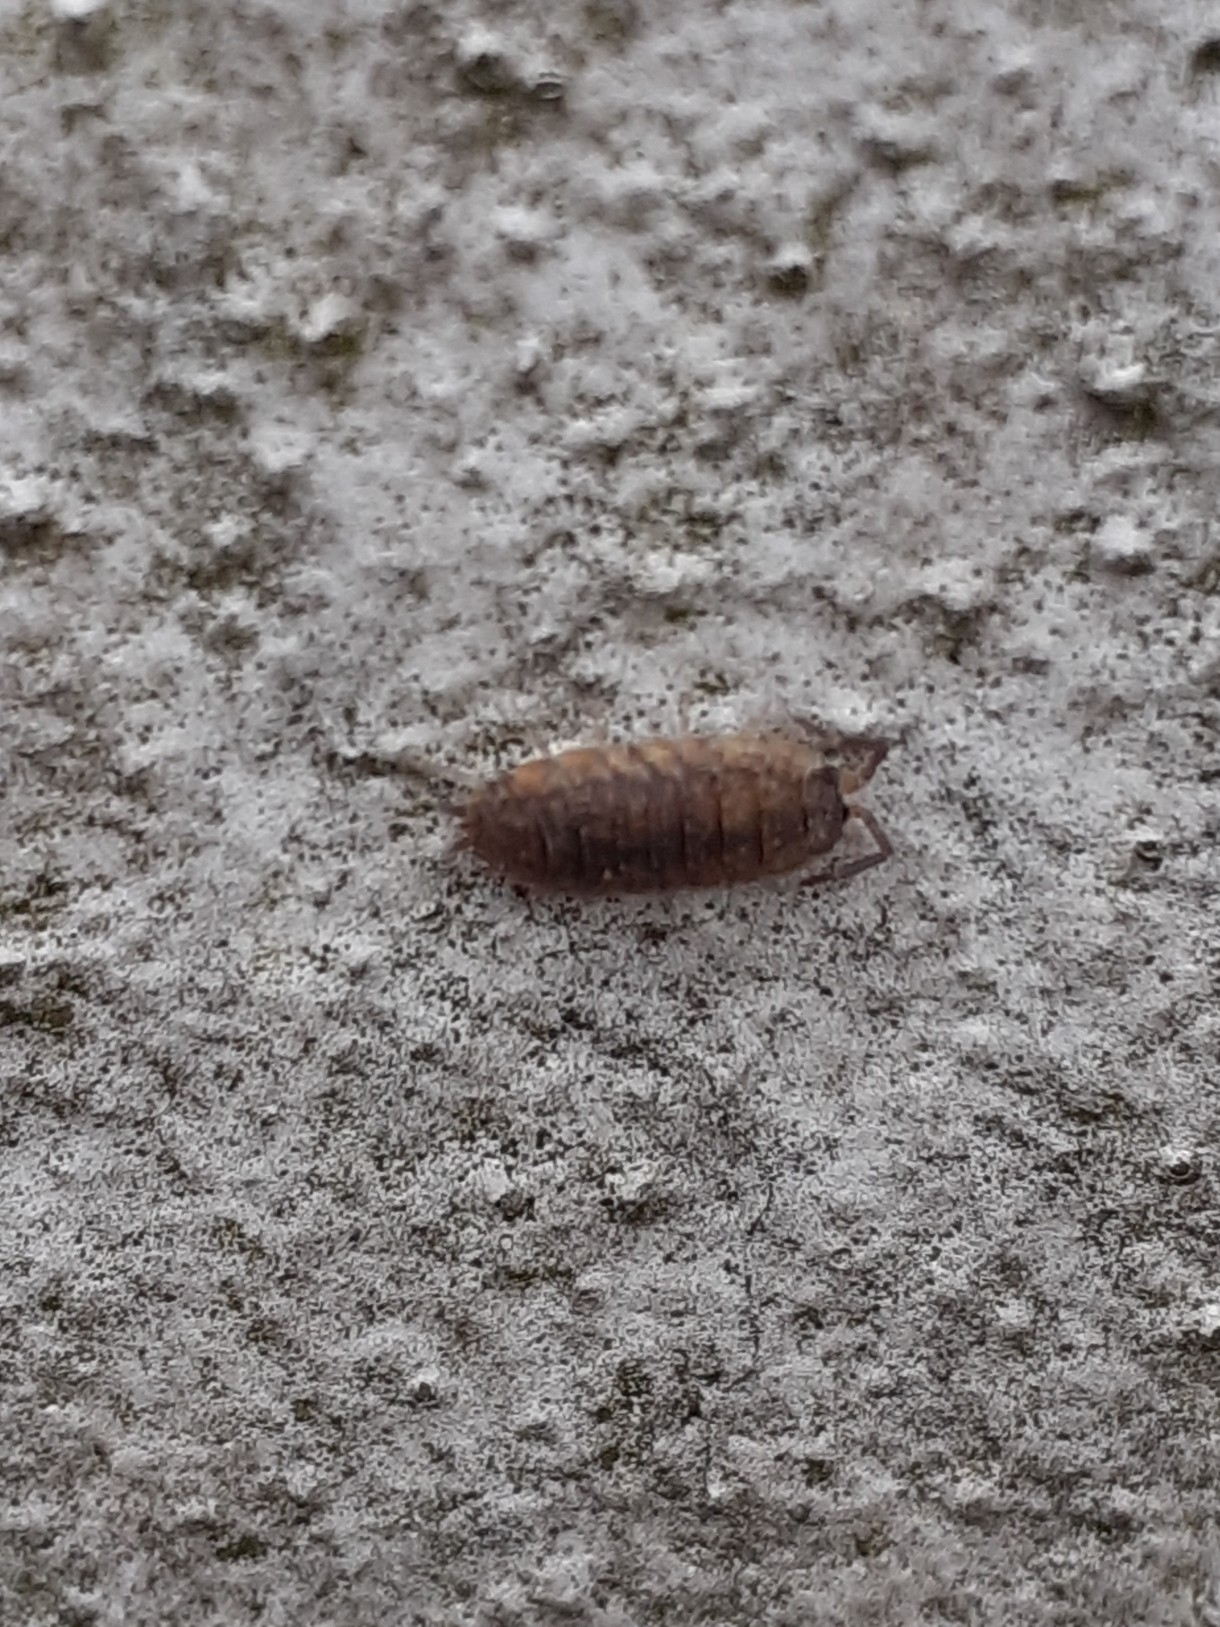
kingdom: Animalia
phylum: Arthropoda
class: Malacostraca
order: Isopoda
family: Porcellionidae
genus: Porcellio
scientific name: Porcellio scaber
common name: Common rough woodlouse
